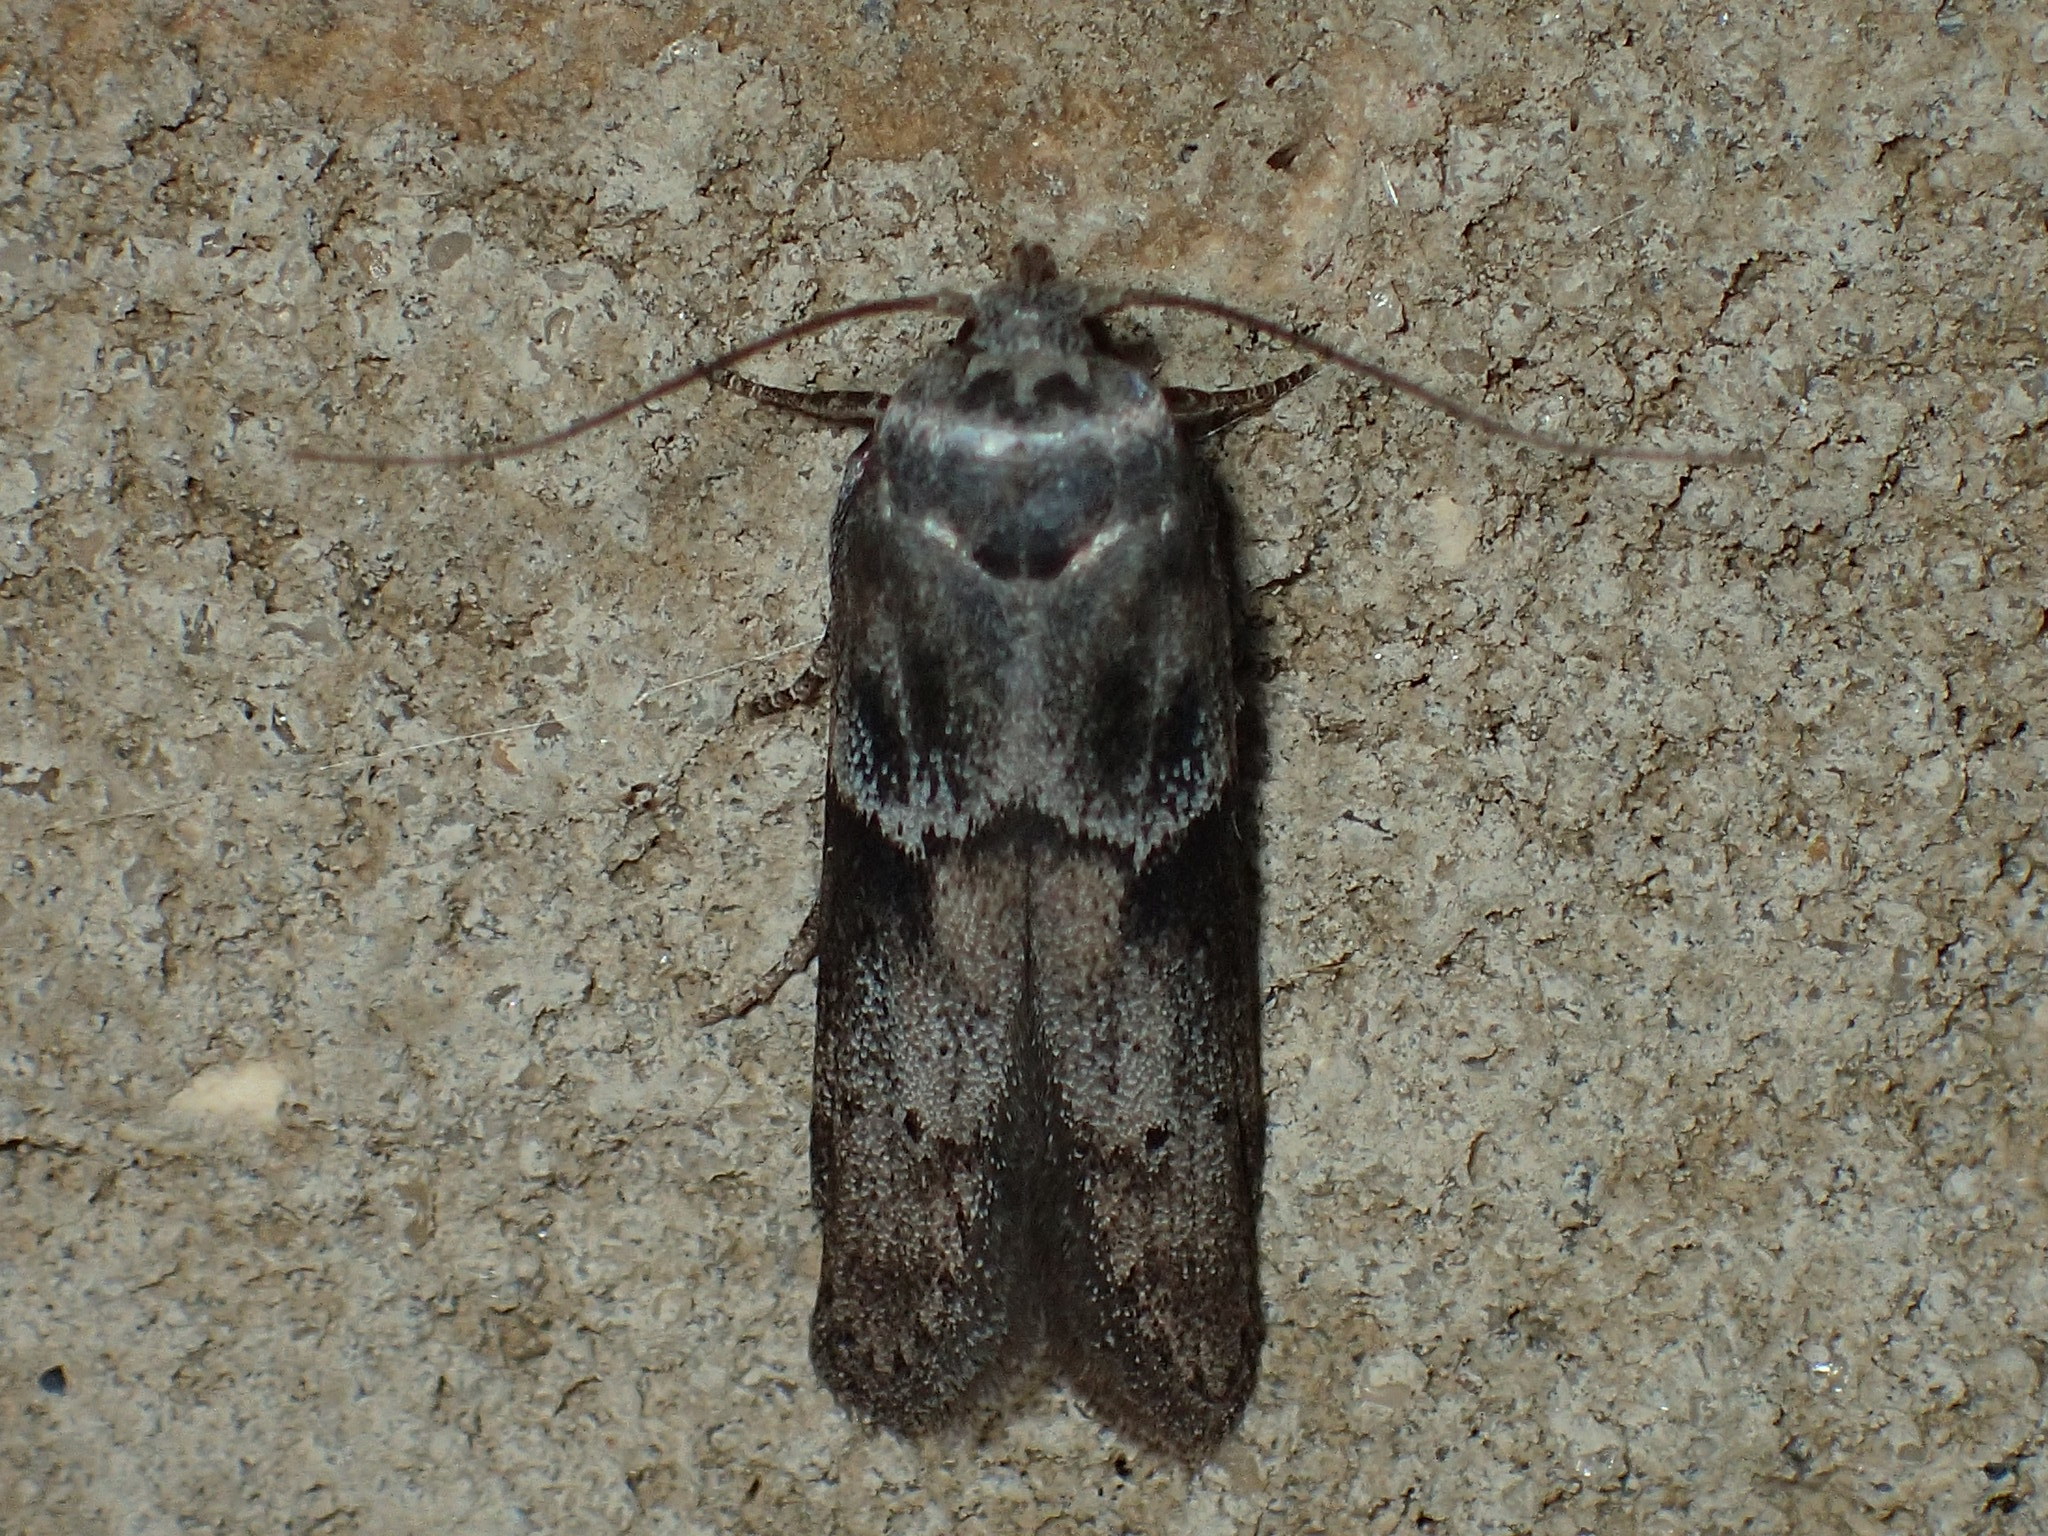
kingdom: Animalia
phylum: Arthropoda
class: Insecta
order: Lepidoptera
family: Blastobasidae
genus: Blastobasis
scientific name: Blastobasis glandulella
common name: Acorn moth
